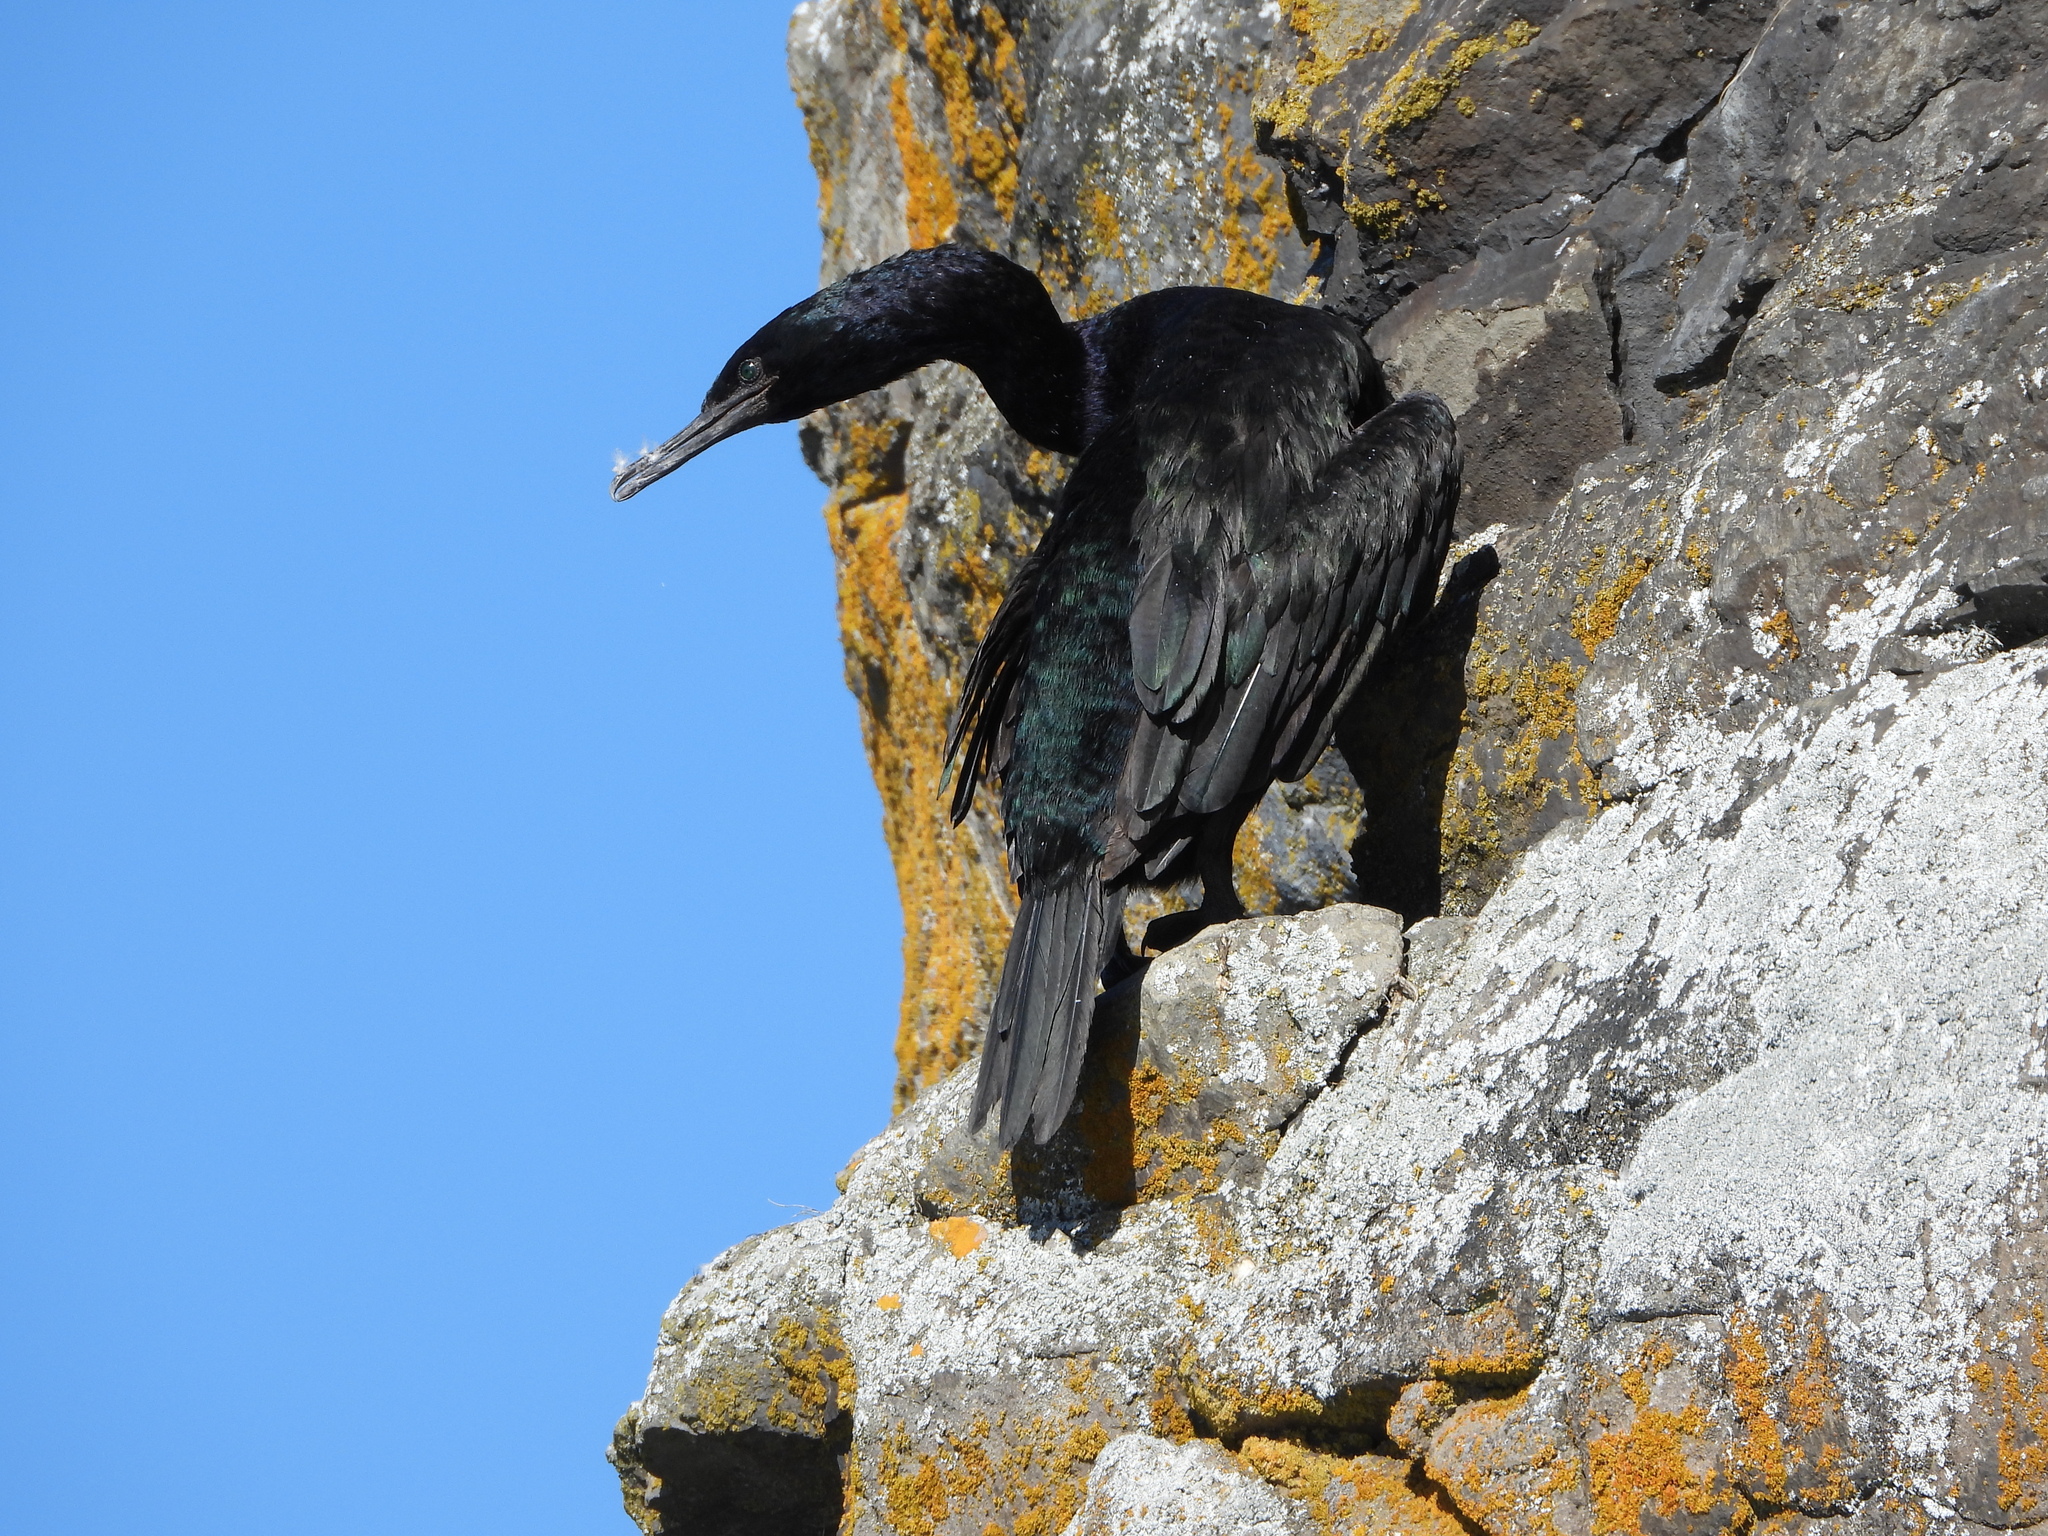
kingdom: Animalia
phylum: Chordata
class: Aves
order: Suliformes
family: Phalacrocoracidae
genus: Phalacrocorax
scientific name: Phalacrocorax pelagicus
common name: Pelagic cormorant
